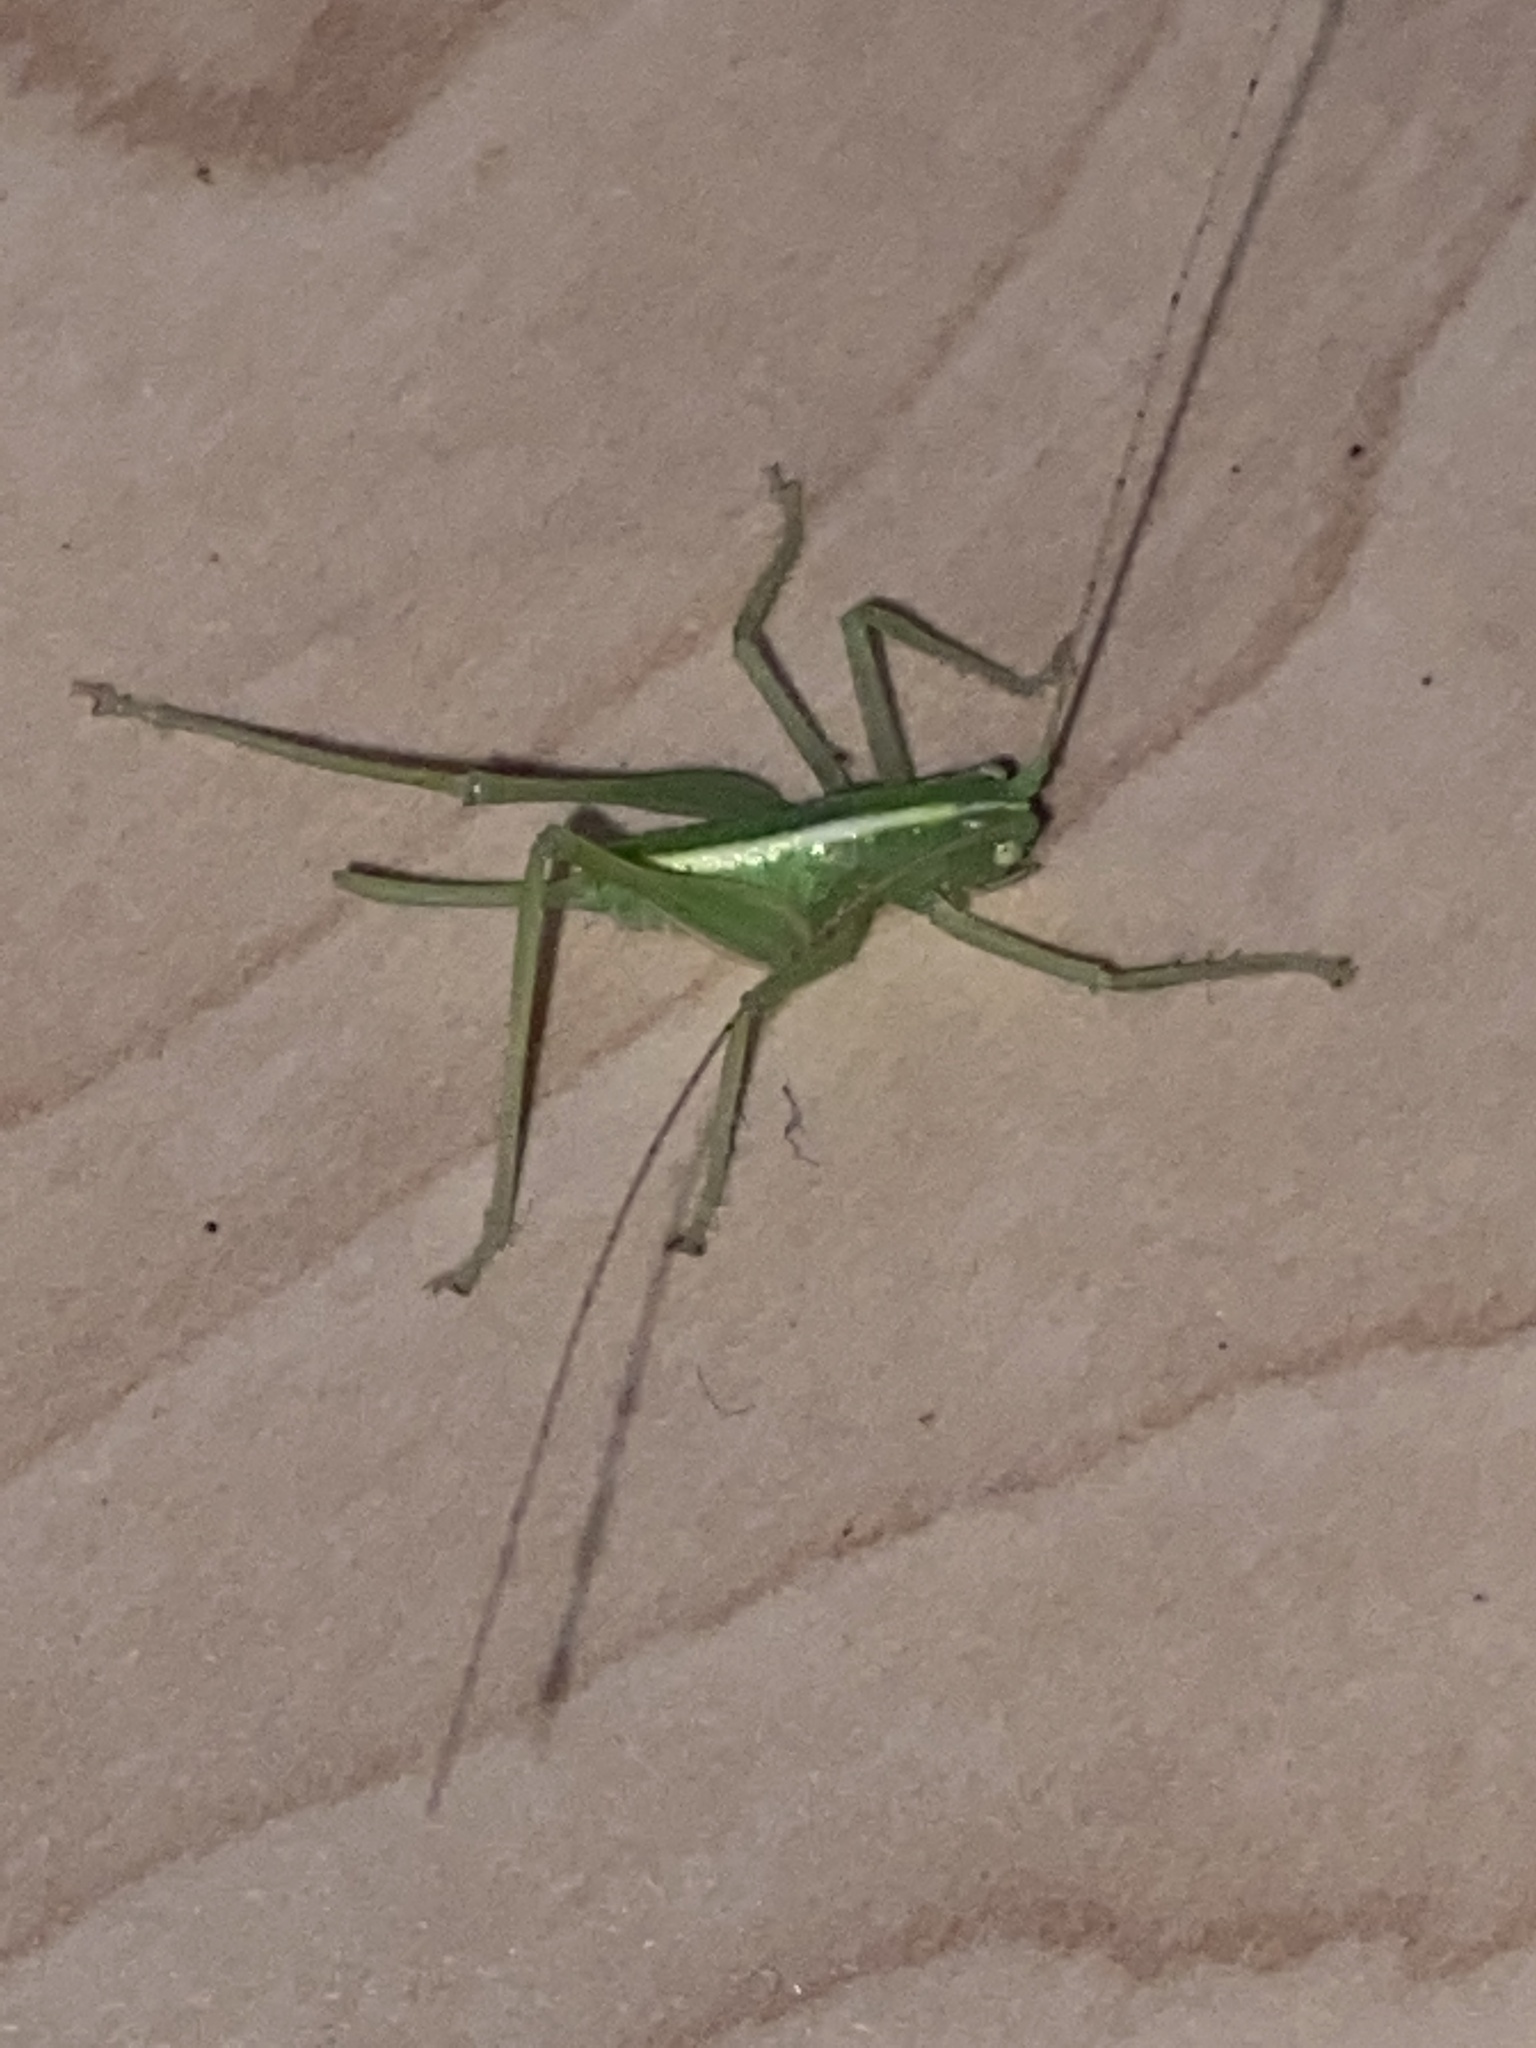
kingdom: Animalia
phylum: Arthropoda
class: Insecta
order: Orthoptera
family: Tettigoniidae
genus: Meconema
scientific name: Meconema meridionale
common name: Southern oak bush-cricket
